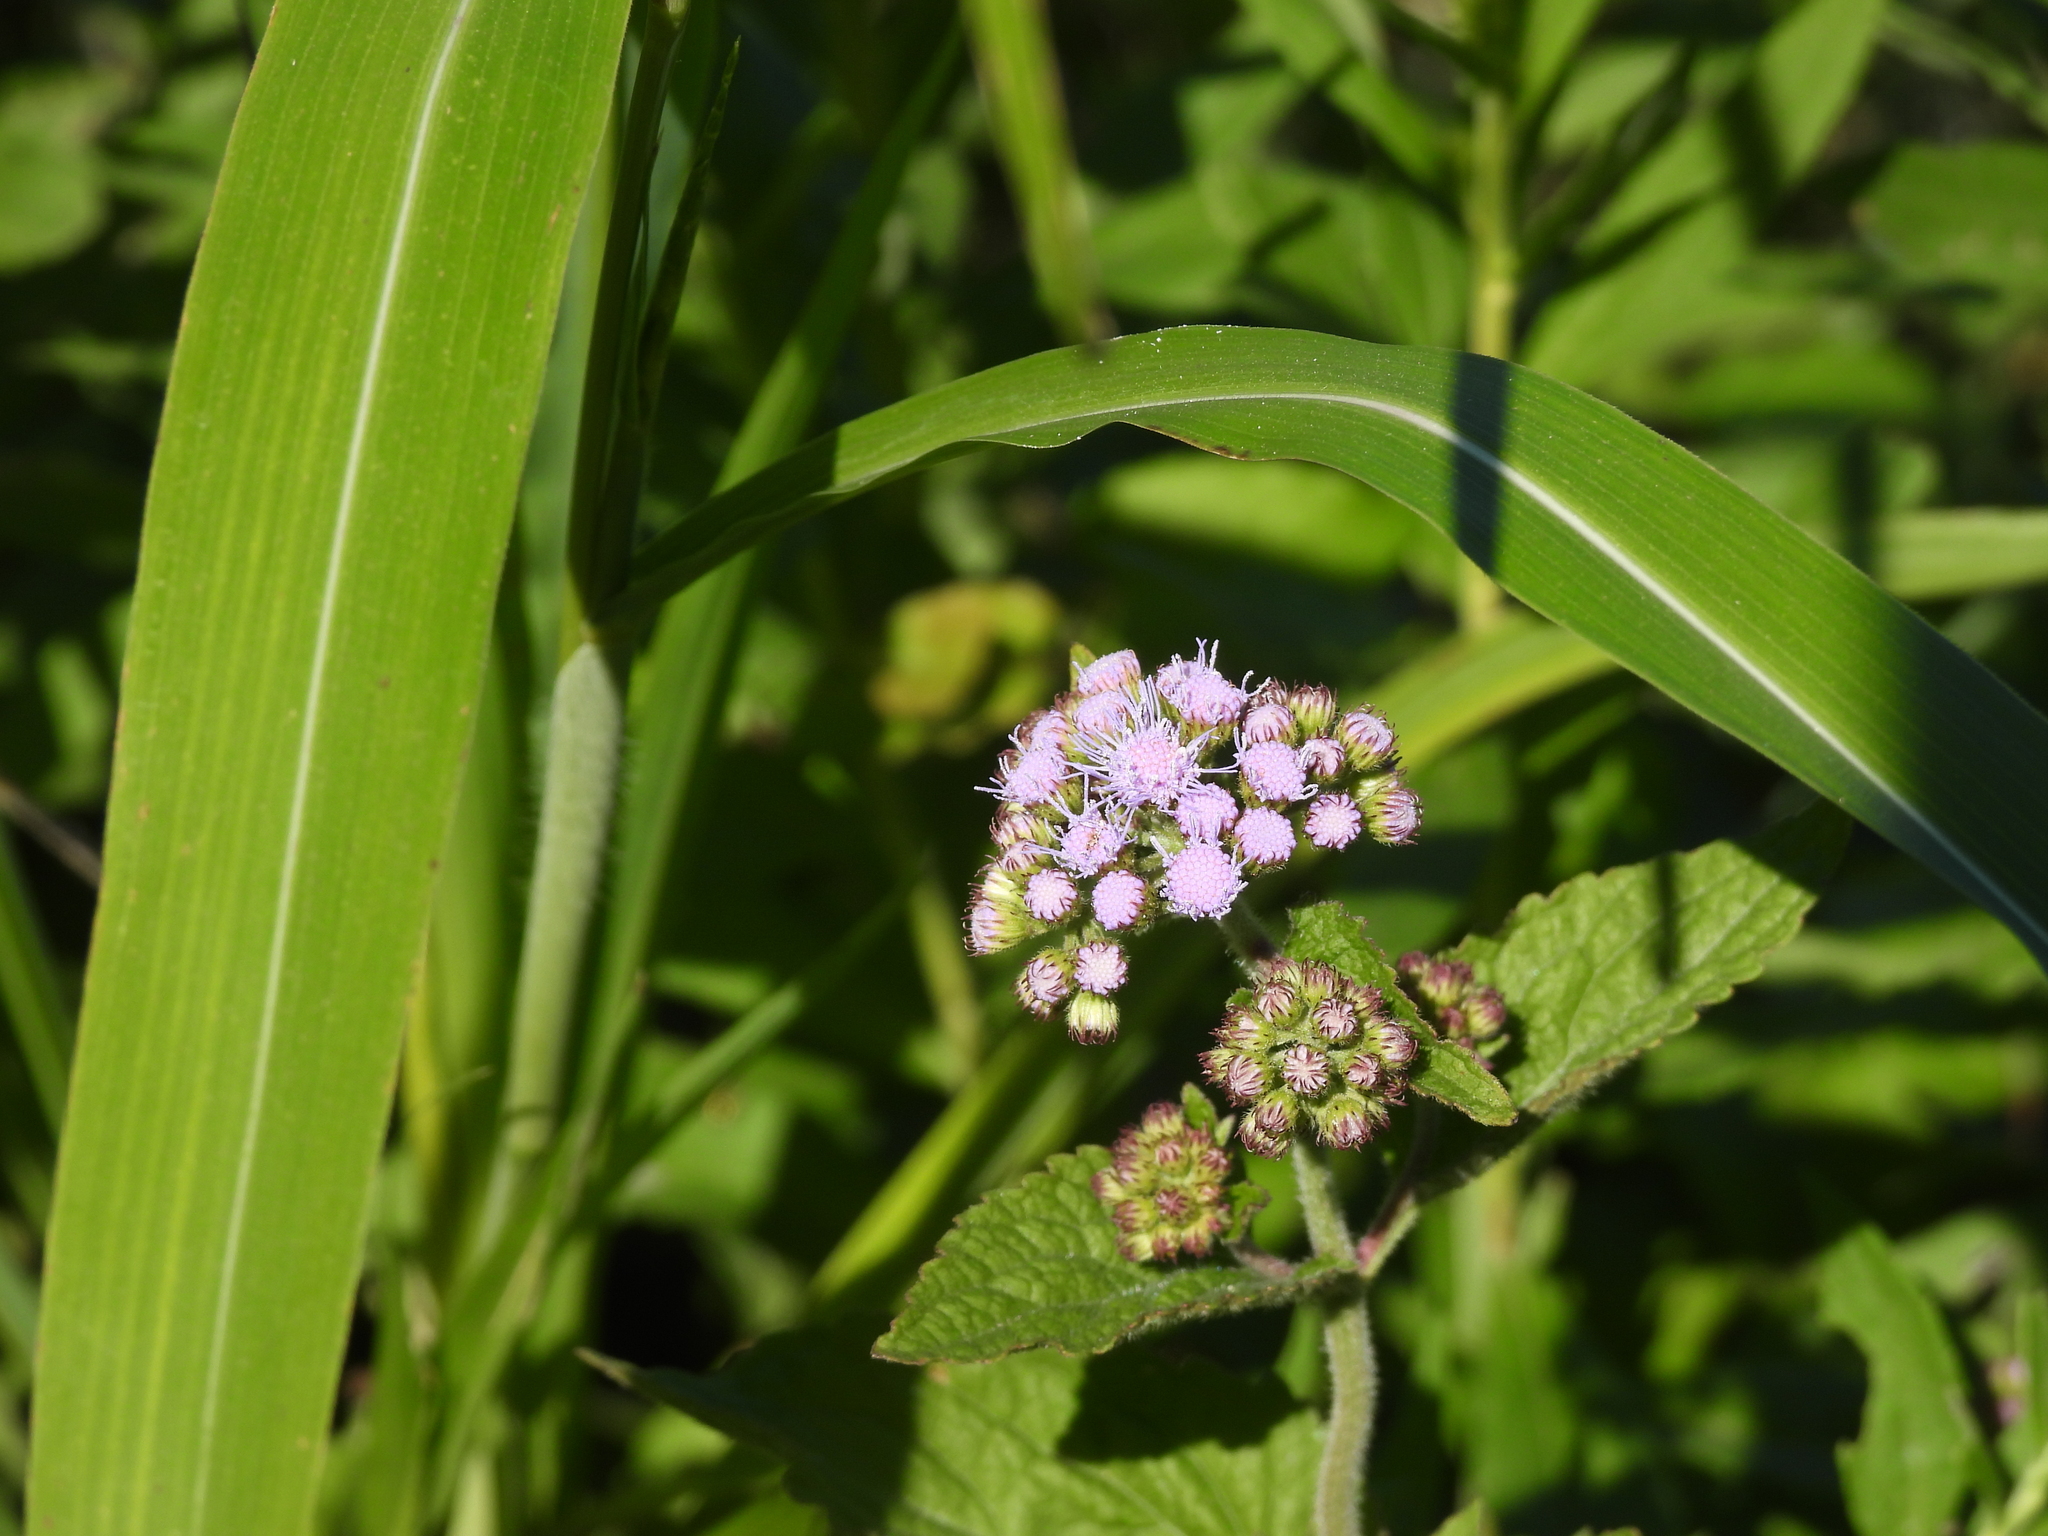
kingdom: Plantae
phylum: Tracheophyta
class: Magnoliopsida
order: Asterales
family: Asteraceae
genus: Conoclinium
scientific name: Conoclinium coelestinum
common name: Blue mistflower
